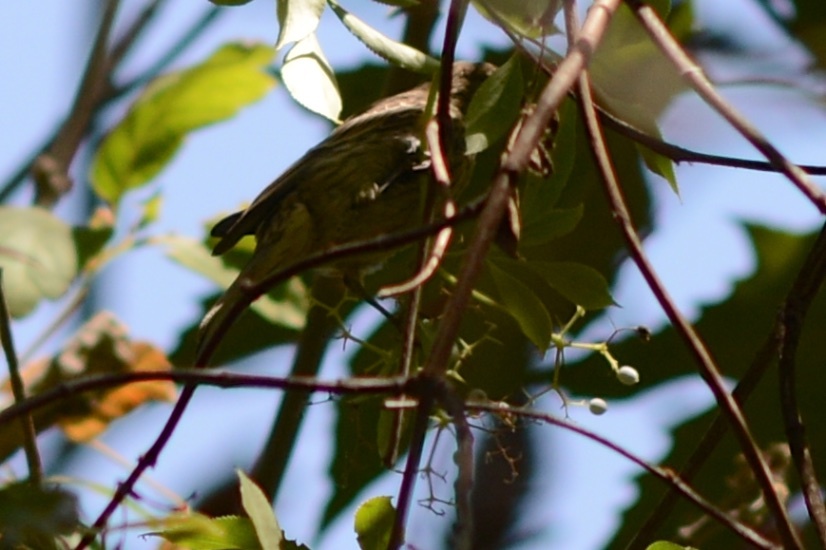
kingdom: Animalia
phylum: Chordata
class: Aves
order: Passeriformes
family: Fringillidae
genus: Haemorhous
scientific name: Haemorhous mexicanus
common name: House finch
